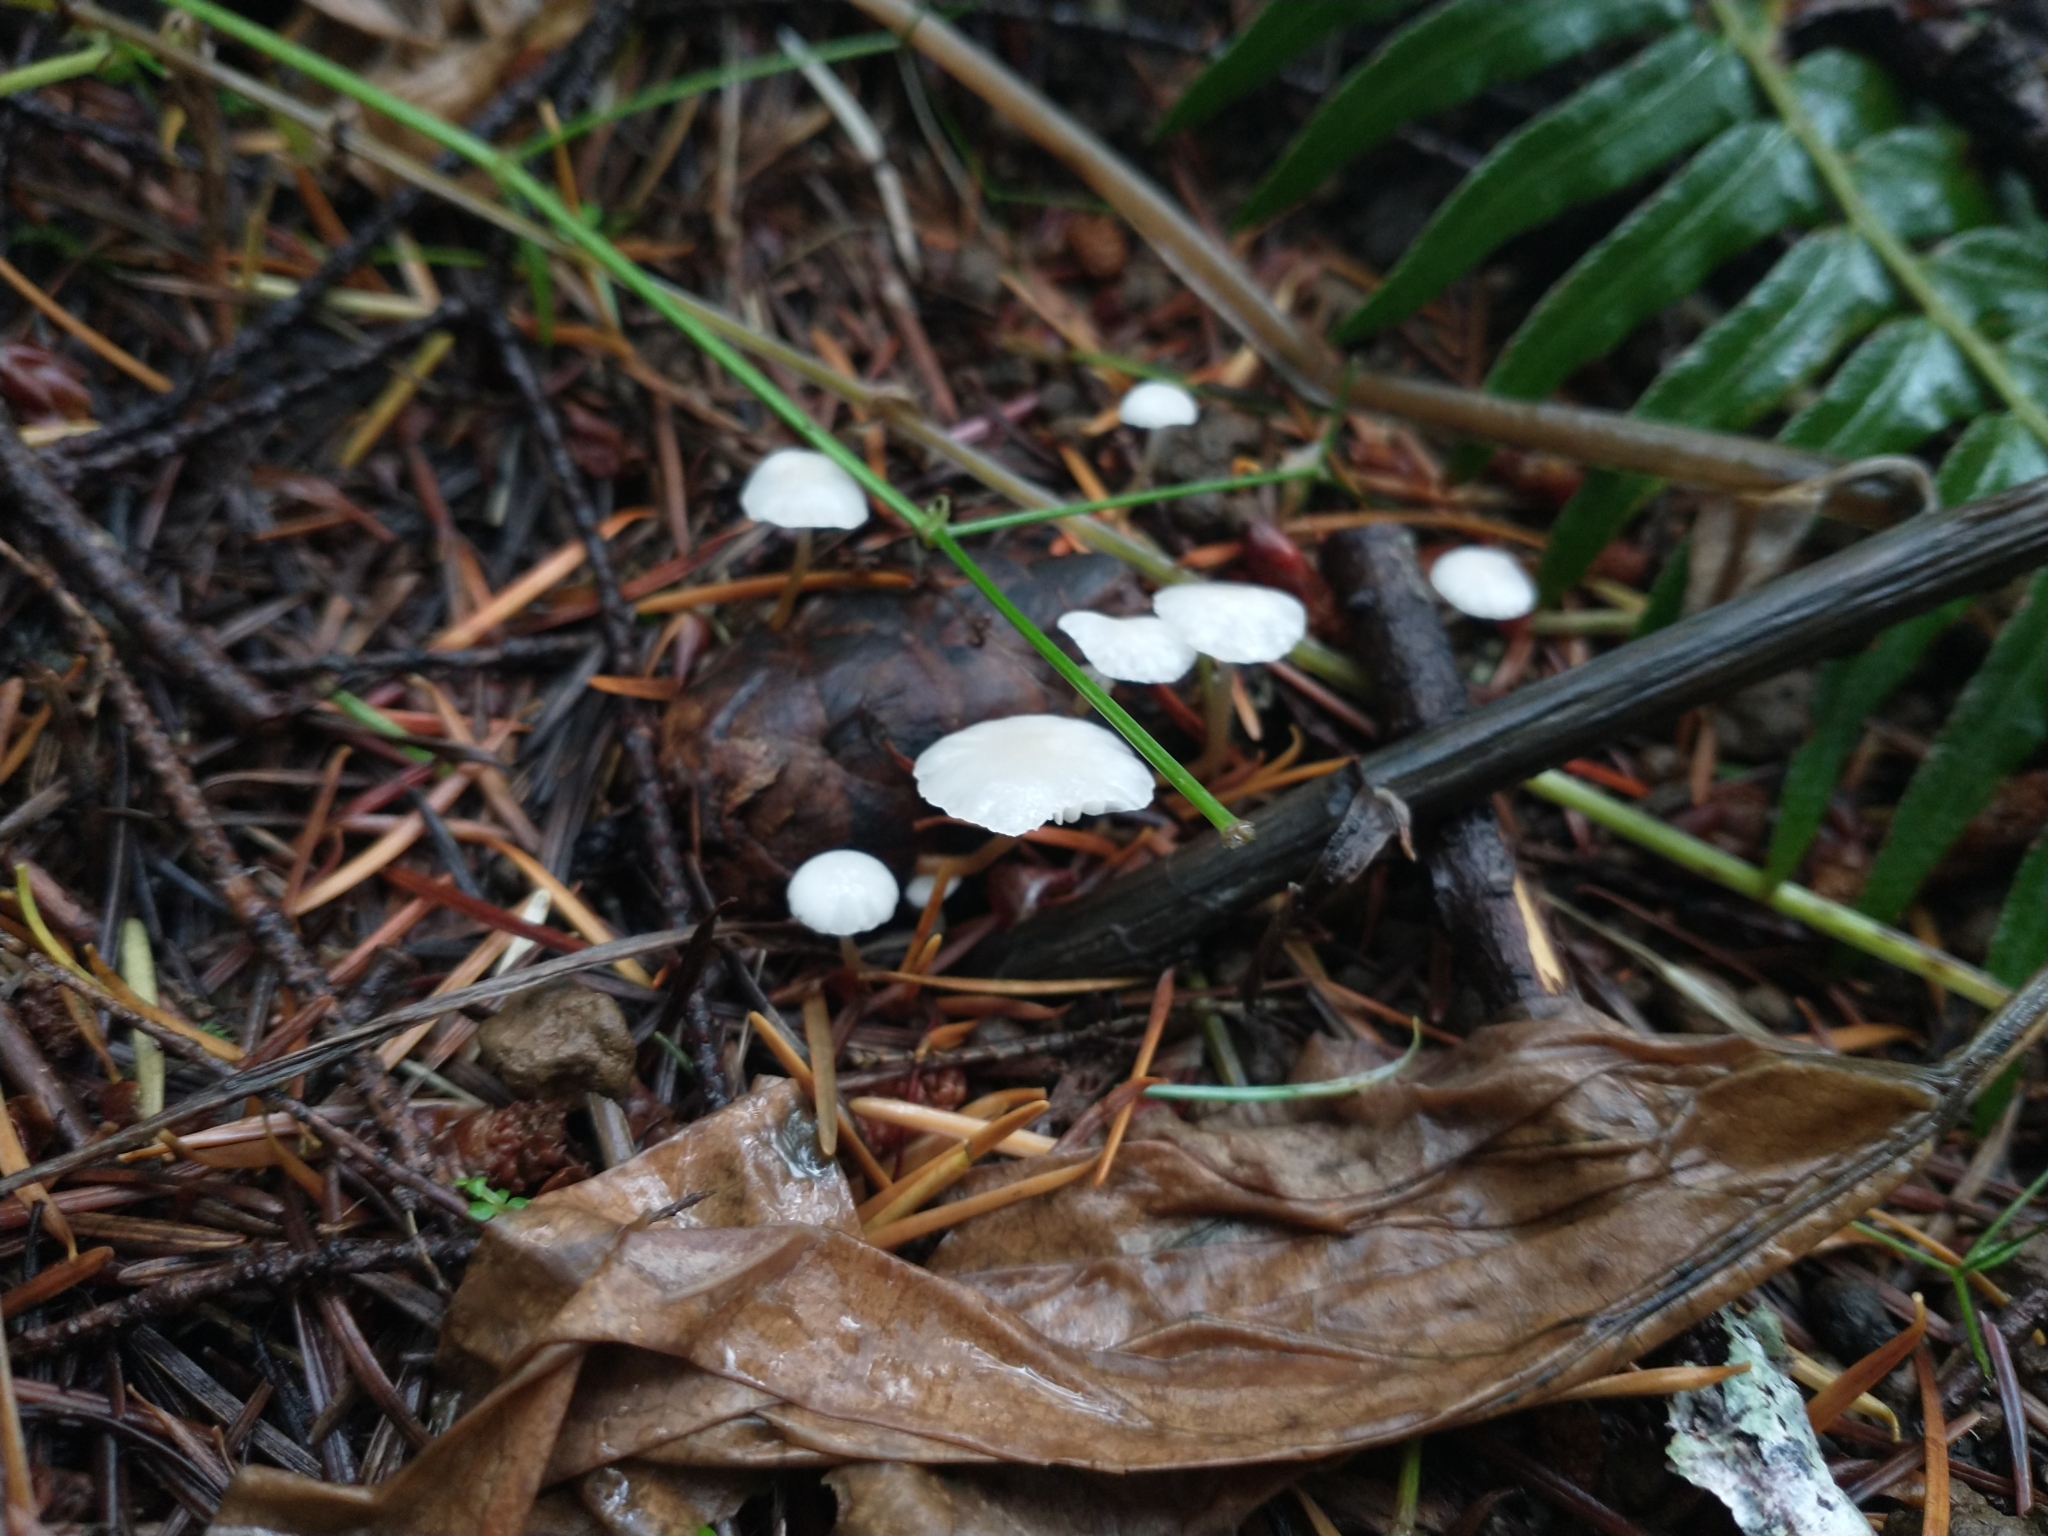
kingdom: Fungi
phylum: Basidiomycota
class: Agaricomycetes
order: Agaricales
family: Physalacriaceae
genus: Strobilurus
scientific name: Strobilurus trullisatus
